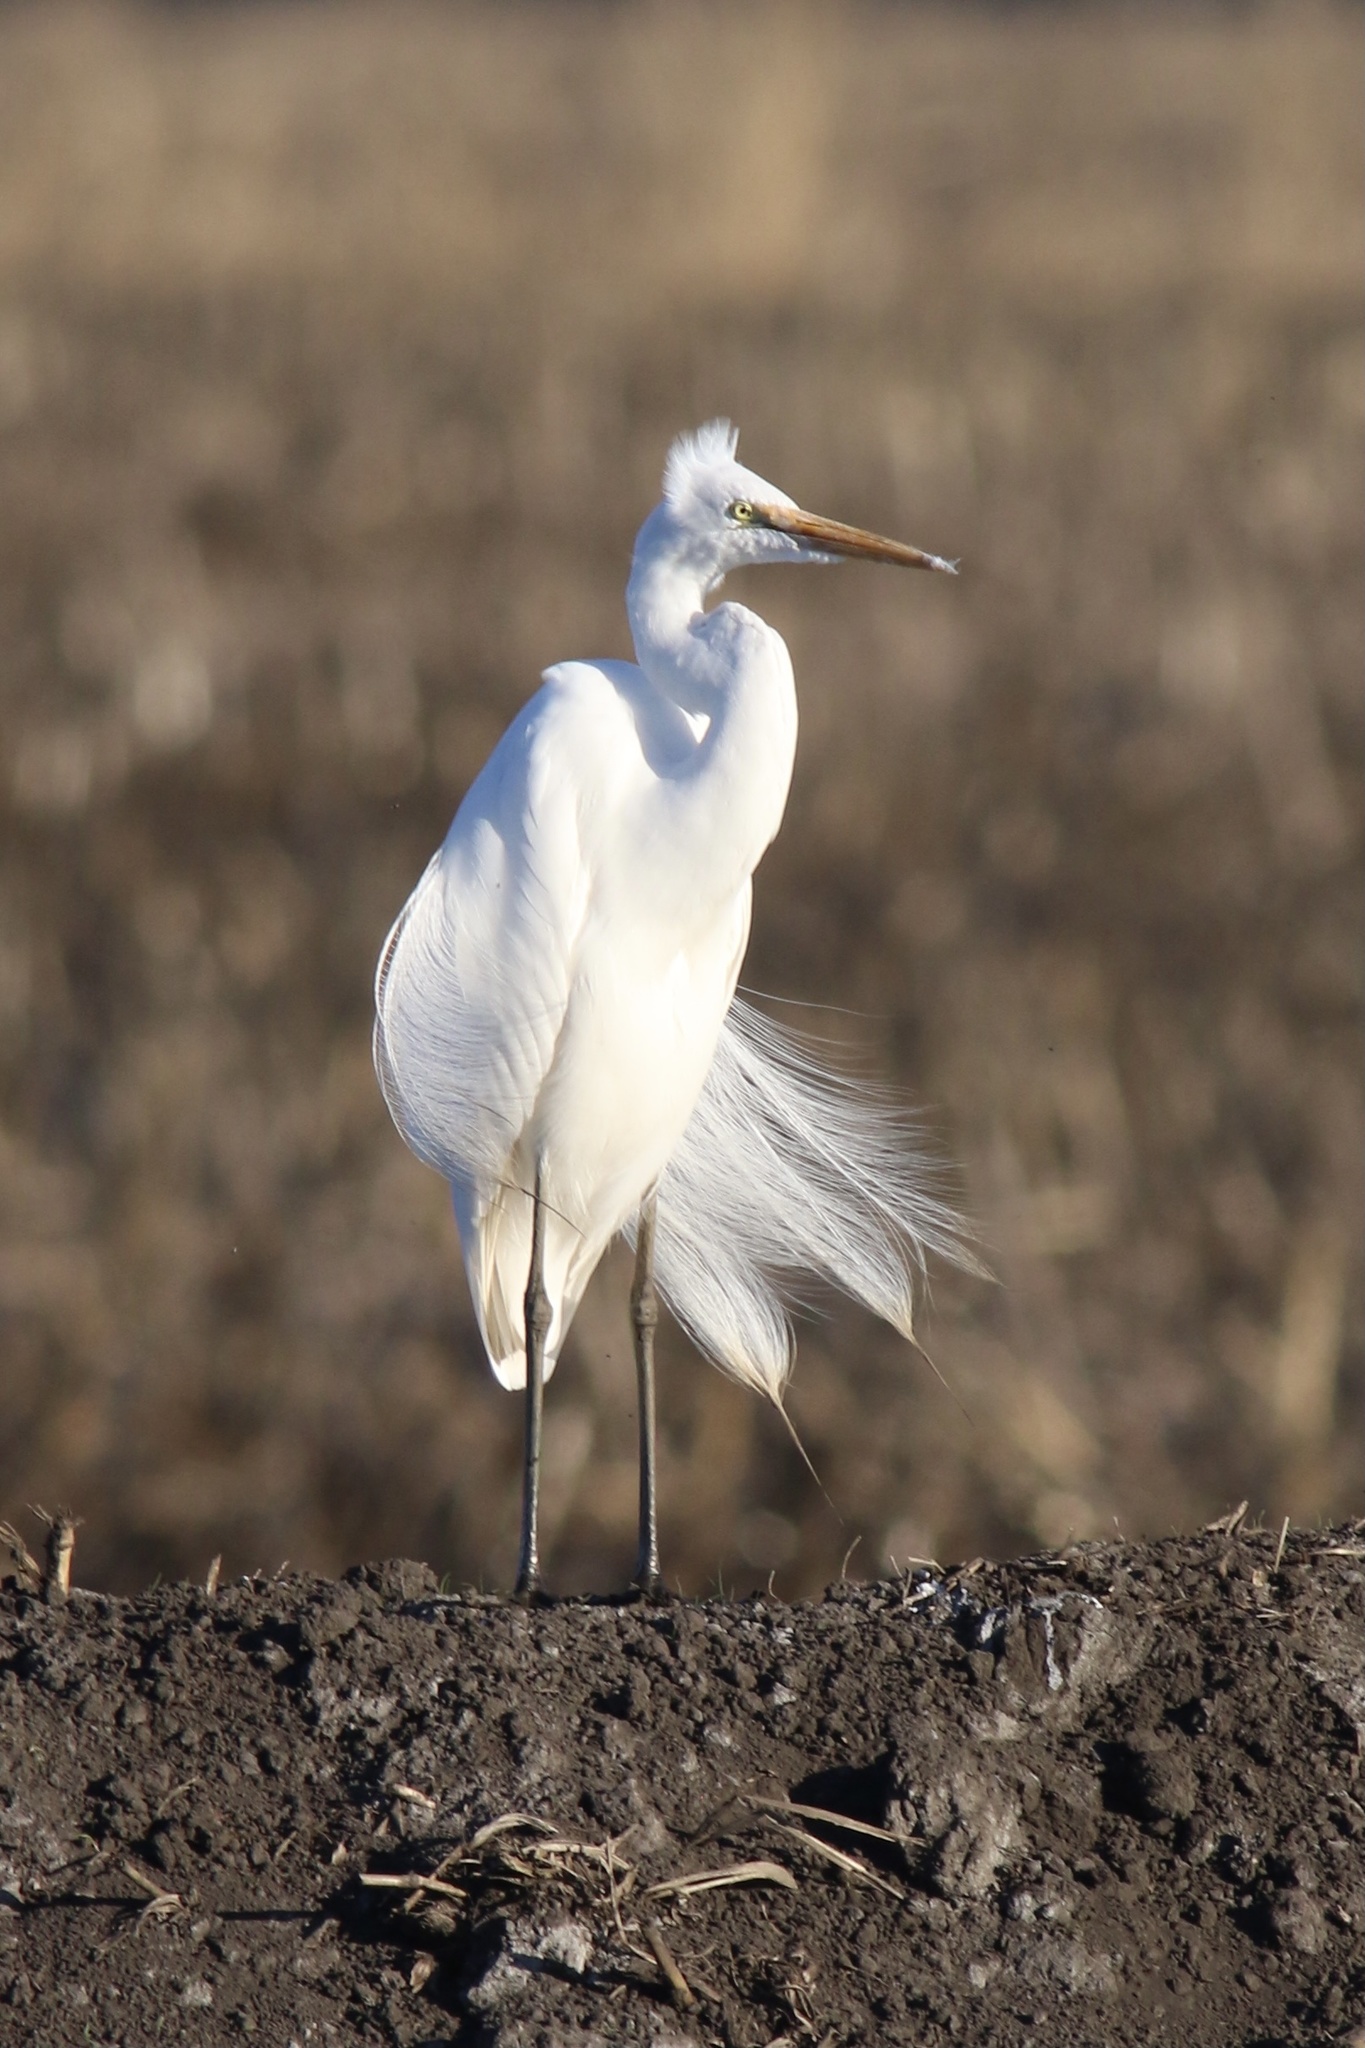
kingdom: Animalia
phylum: Chordata
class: Aves
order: Pelecaniformes
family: Ardeidae
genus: Ardea
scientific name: Ardea alba
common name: Great egret
